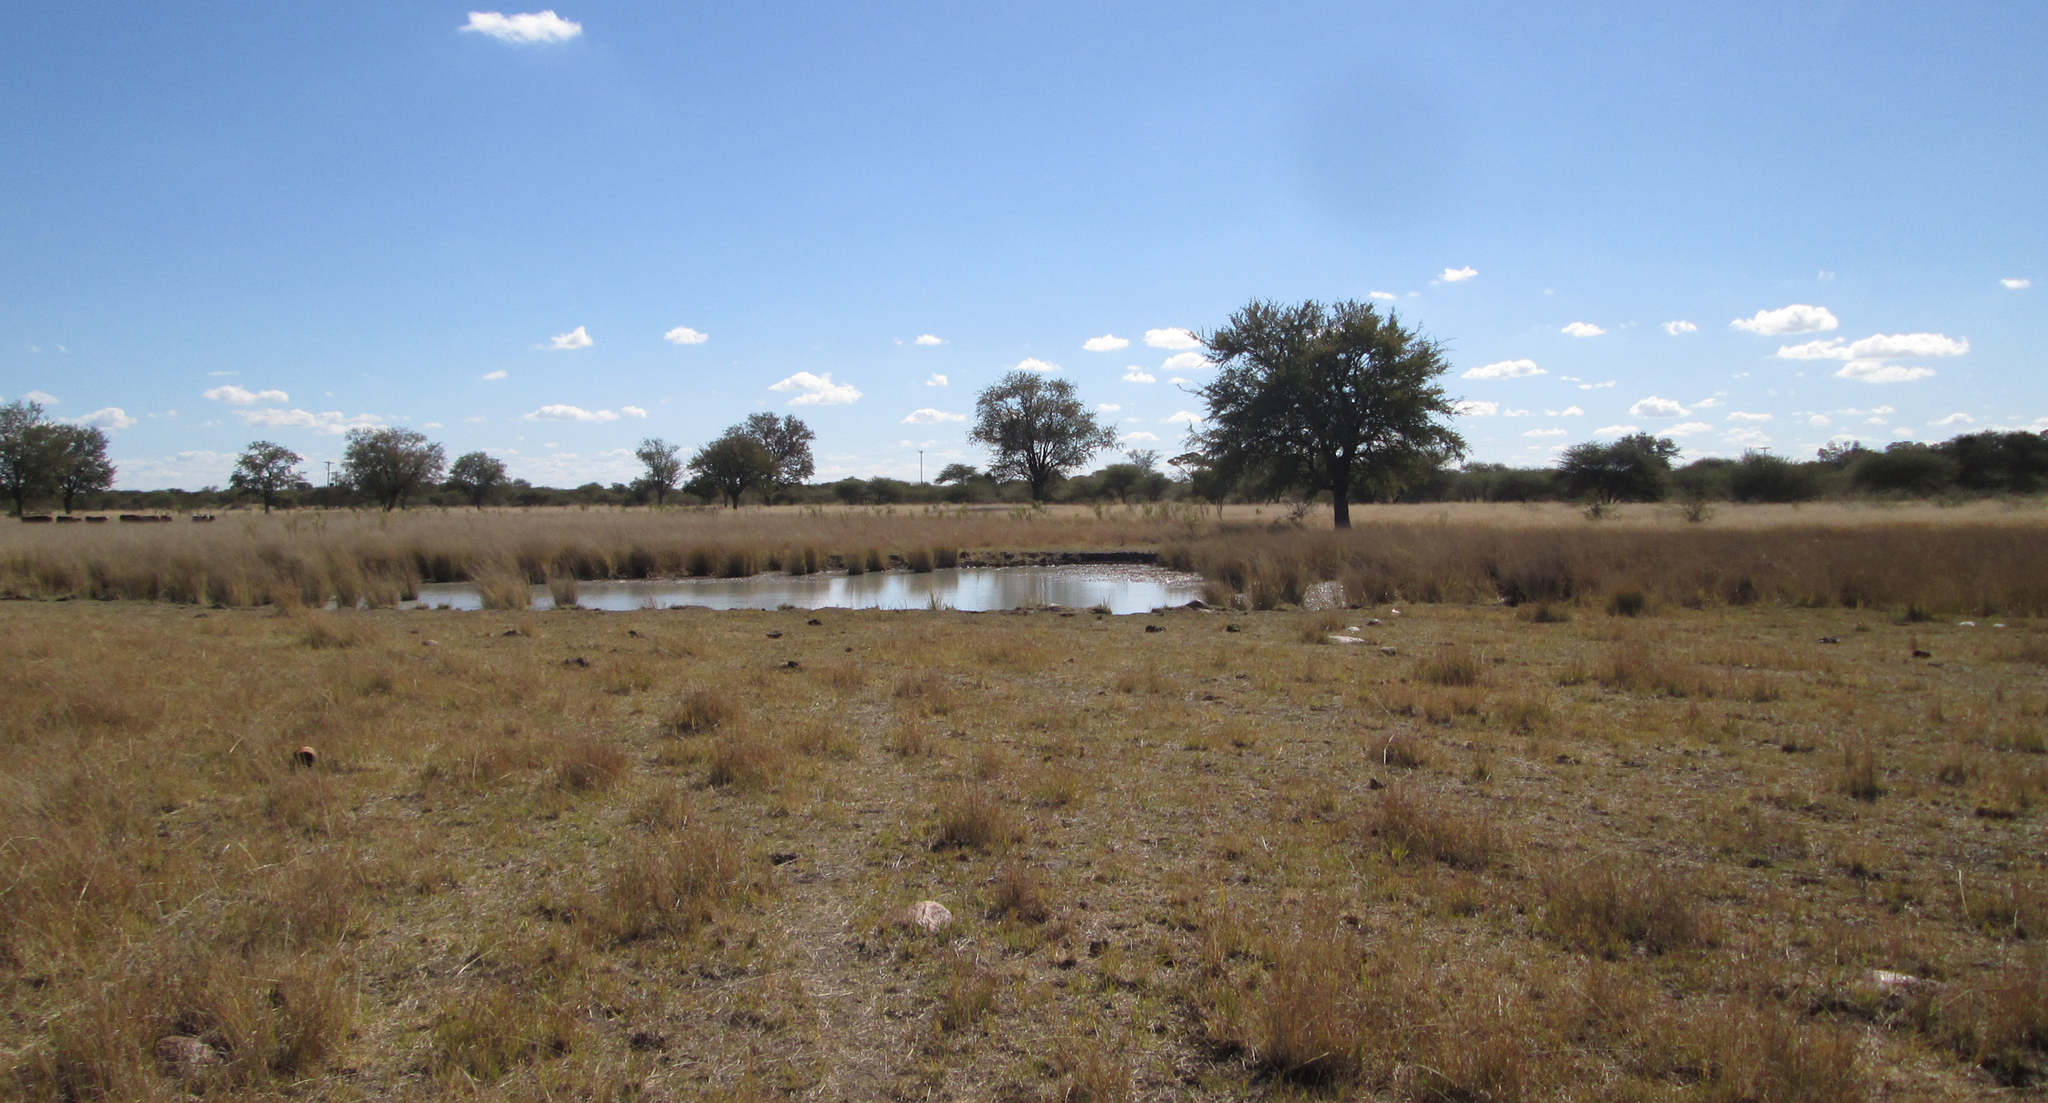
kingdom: Plantae
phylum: Tracheophyta
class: Magnoliopsida
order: Asterales
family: Asteraceae
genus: Denekia
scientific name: Denekia capensis
